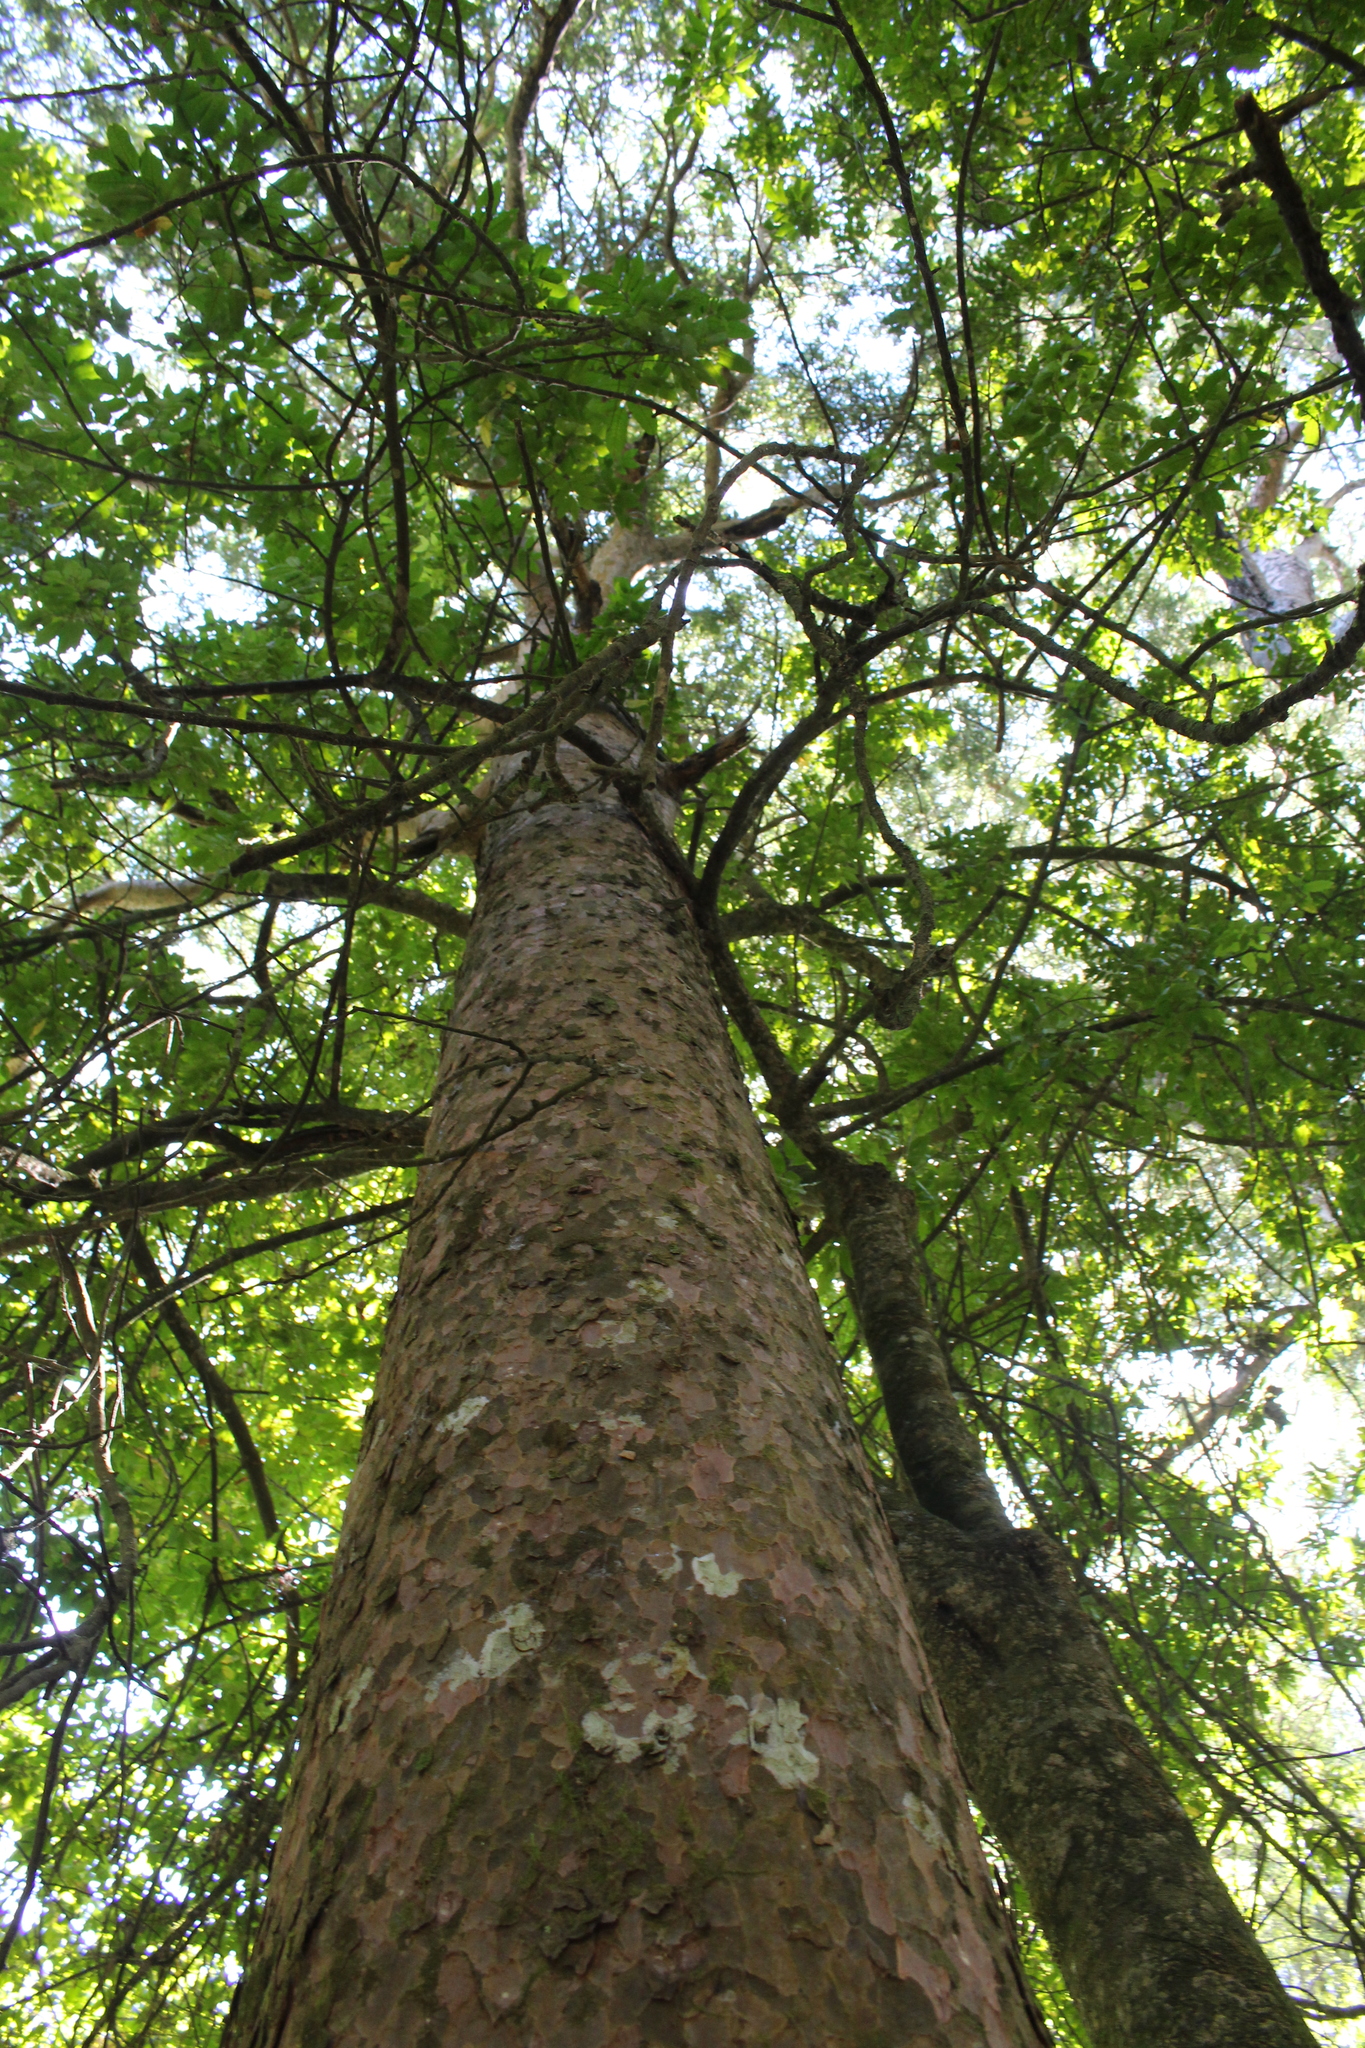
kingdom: Plantae
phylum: Tracheophyta
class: Pinopsida
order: Pinales
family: Podocarpaceae
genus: Prumnopitys
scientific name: Prumnopitys taxifolia
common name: Matai
